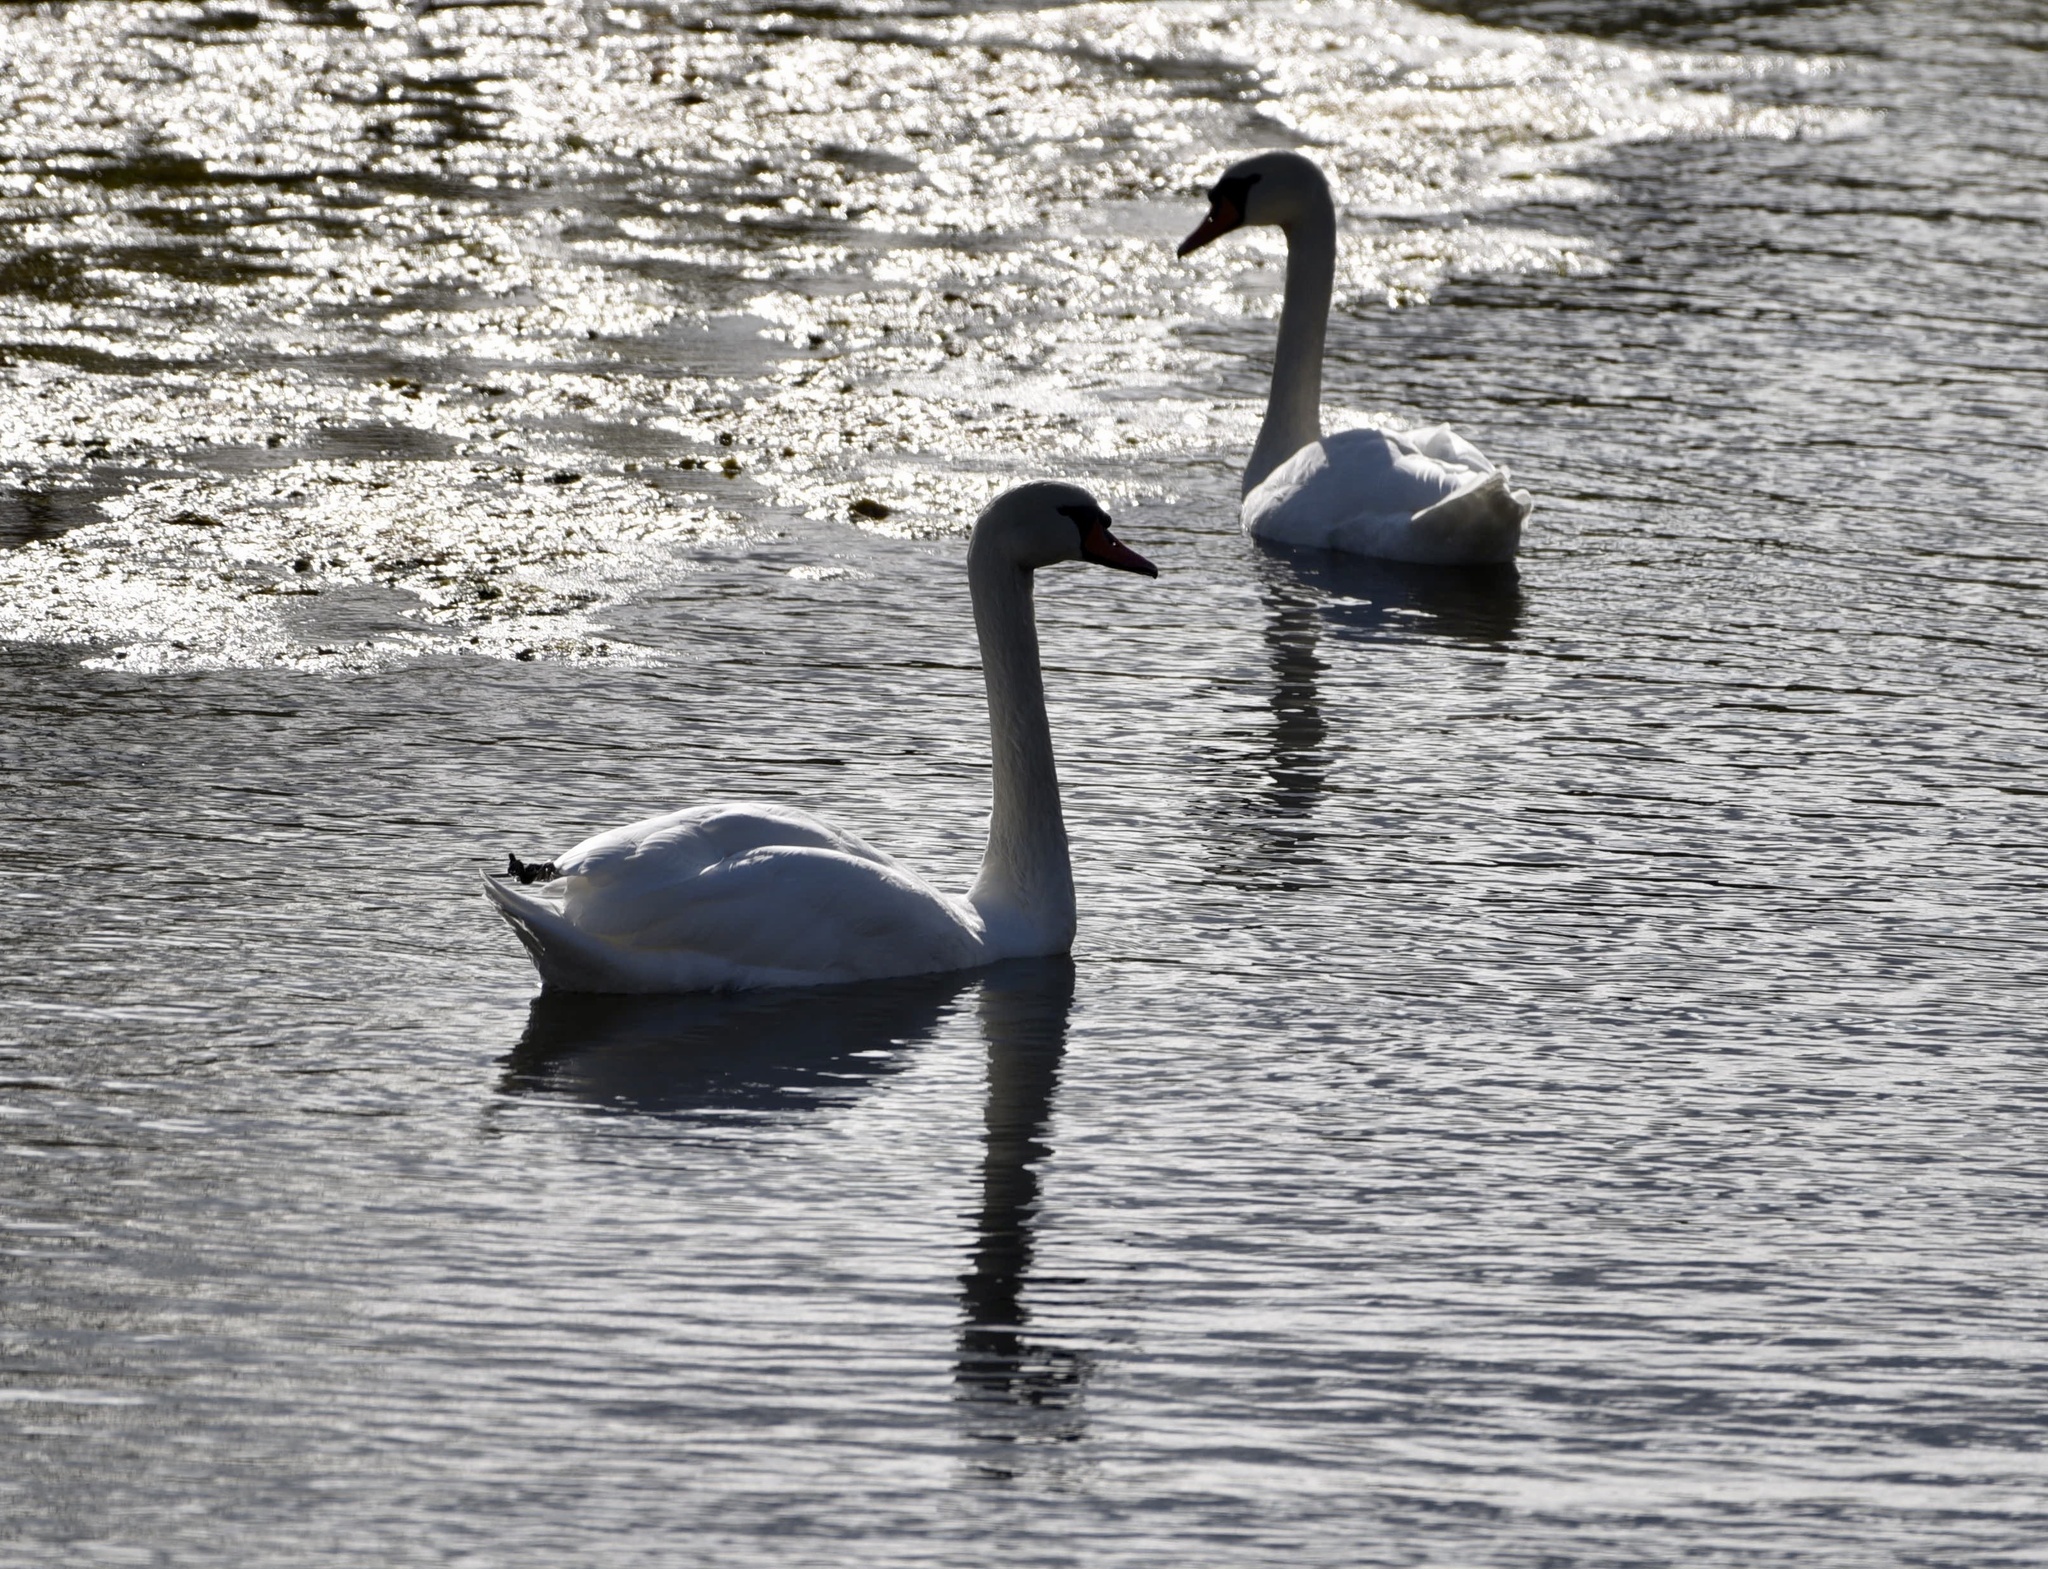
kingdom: Animalia
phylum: Chordata
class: Aves
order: Anseriformes
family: Anatidae
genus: Cygnus
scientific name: Cygnus olor
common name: Mute swan
